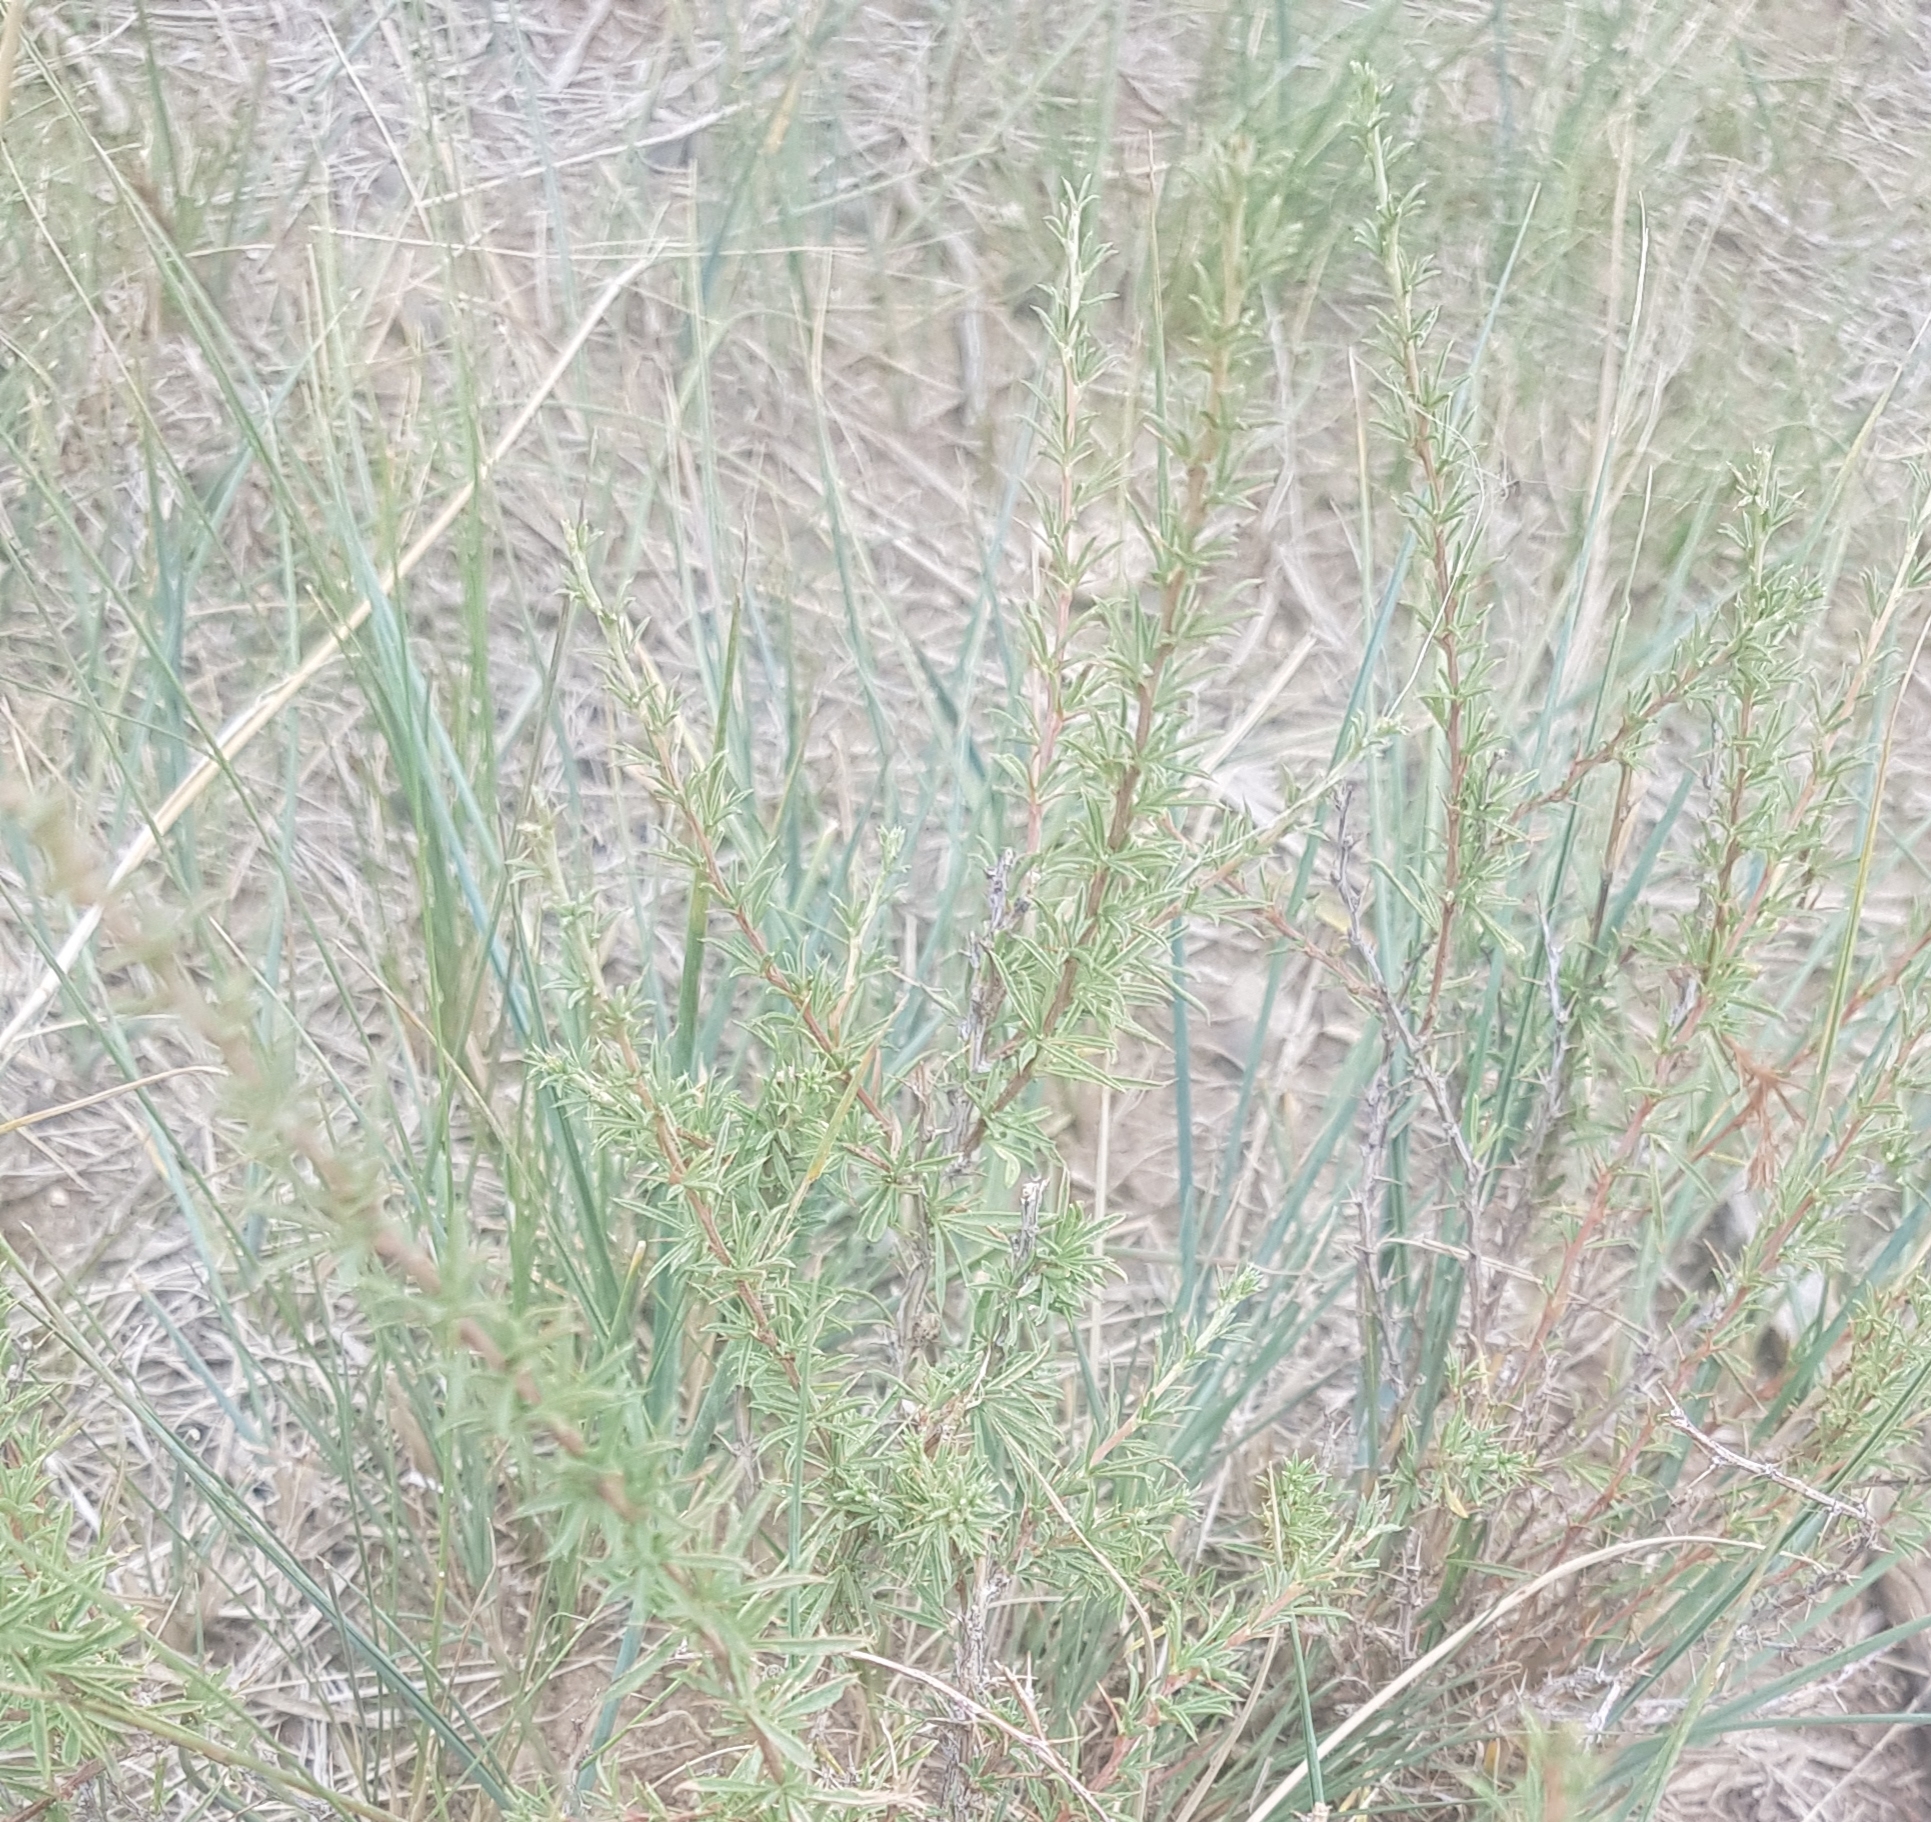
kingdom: Plantae
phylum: Tracheophyta
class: Magnoliopsida
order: Fabales
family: Fabaceae
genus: Caragana
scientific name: Caragana stenophylla
